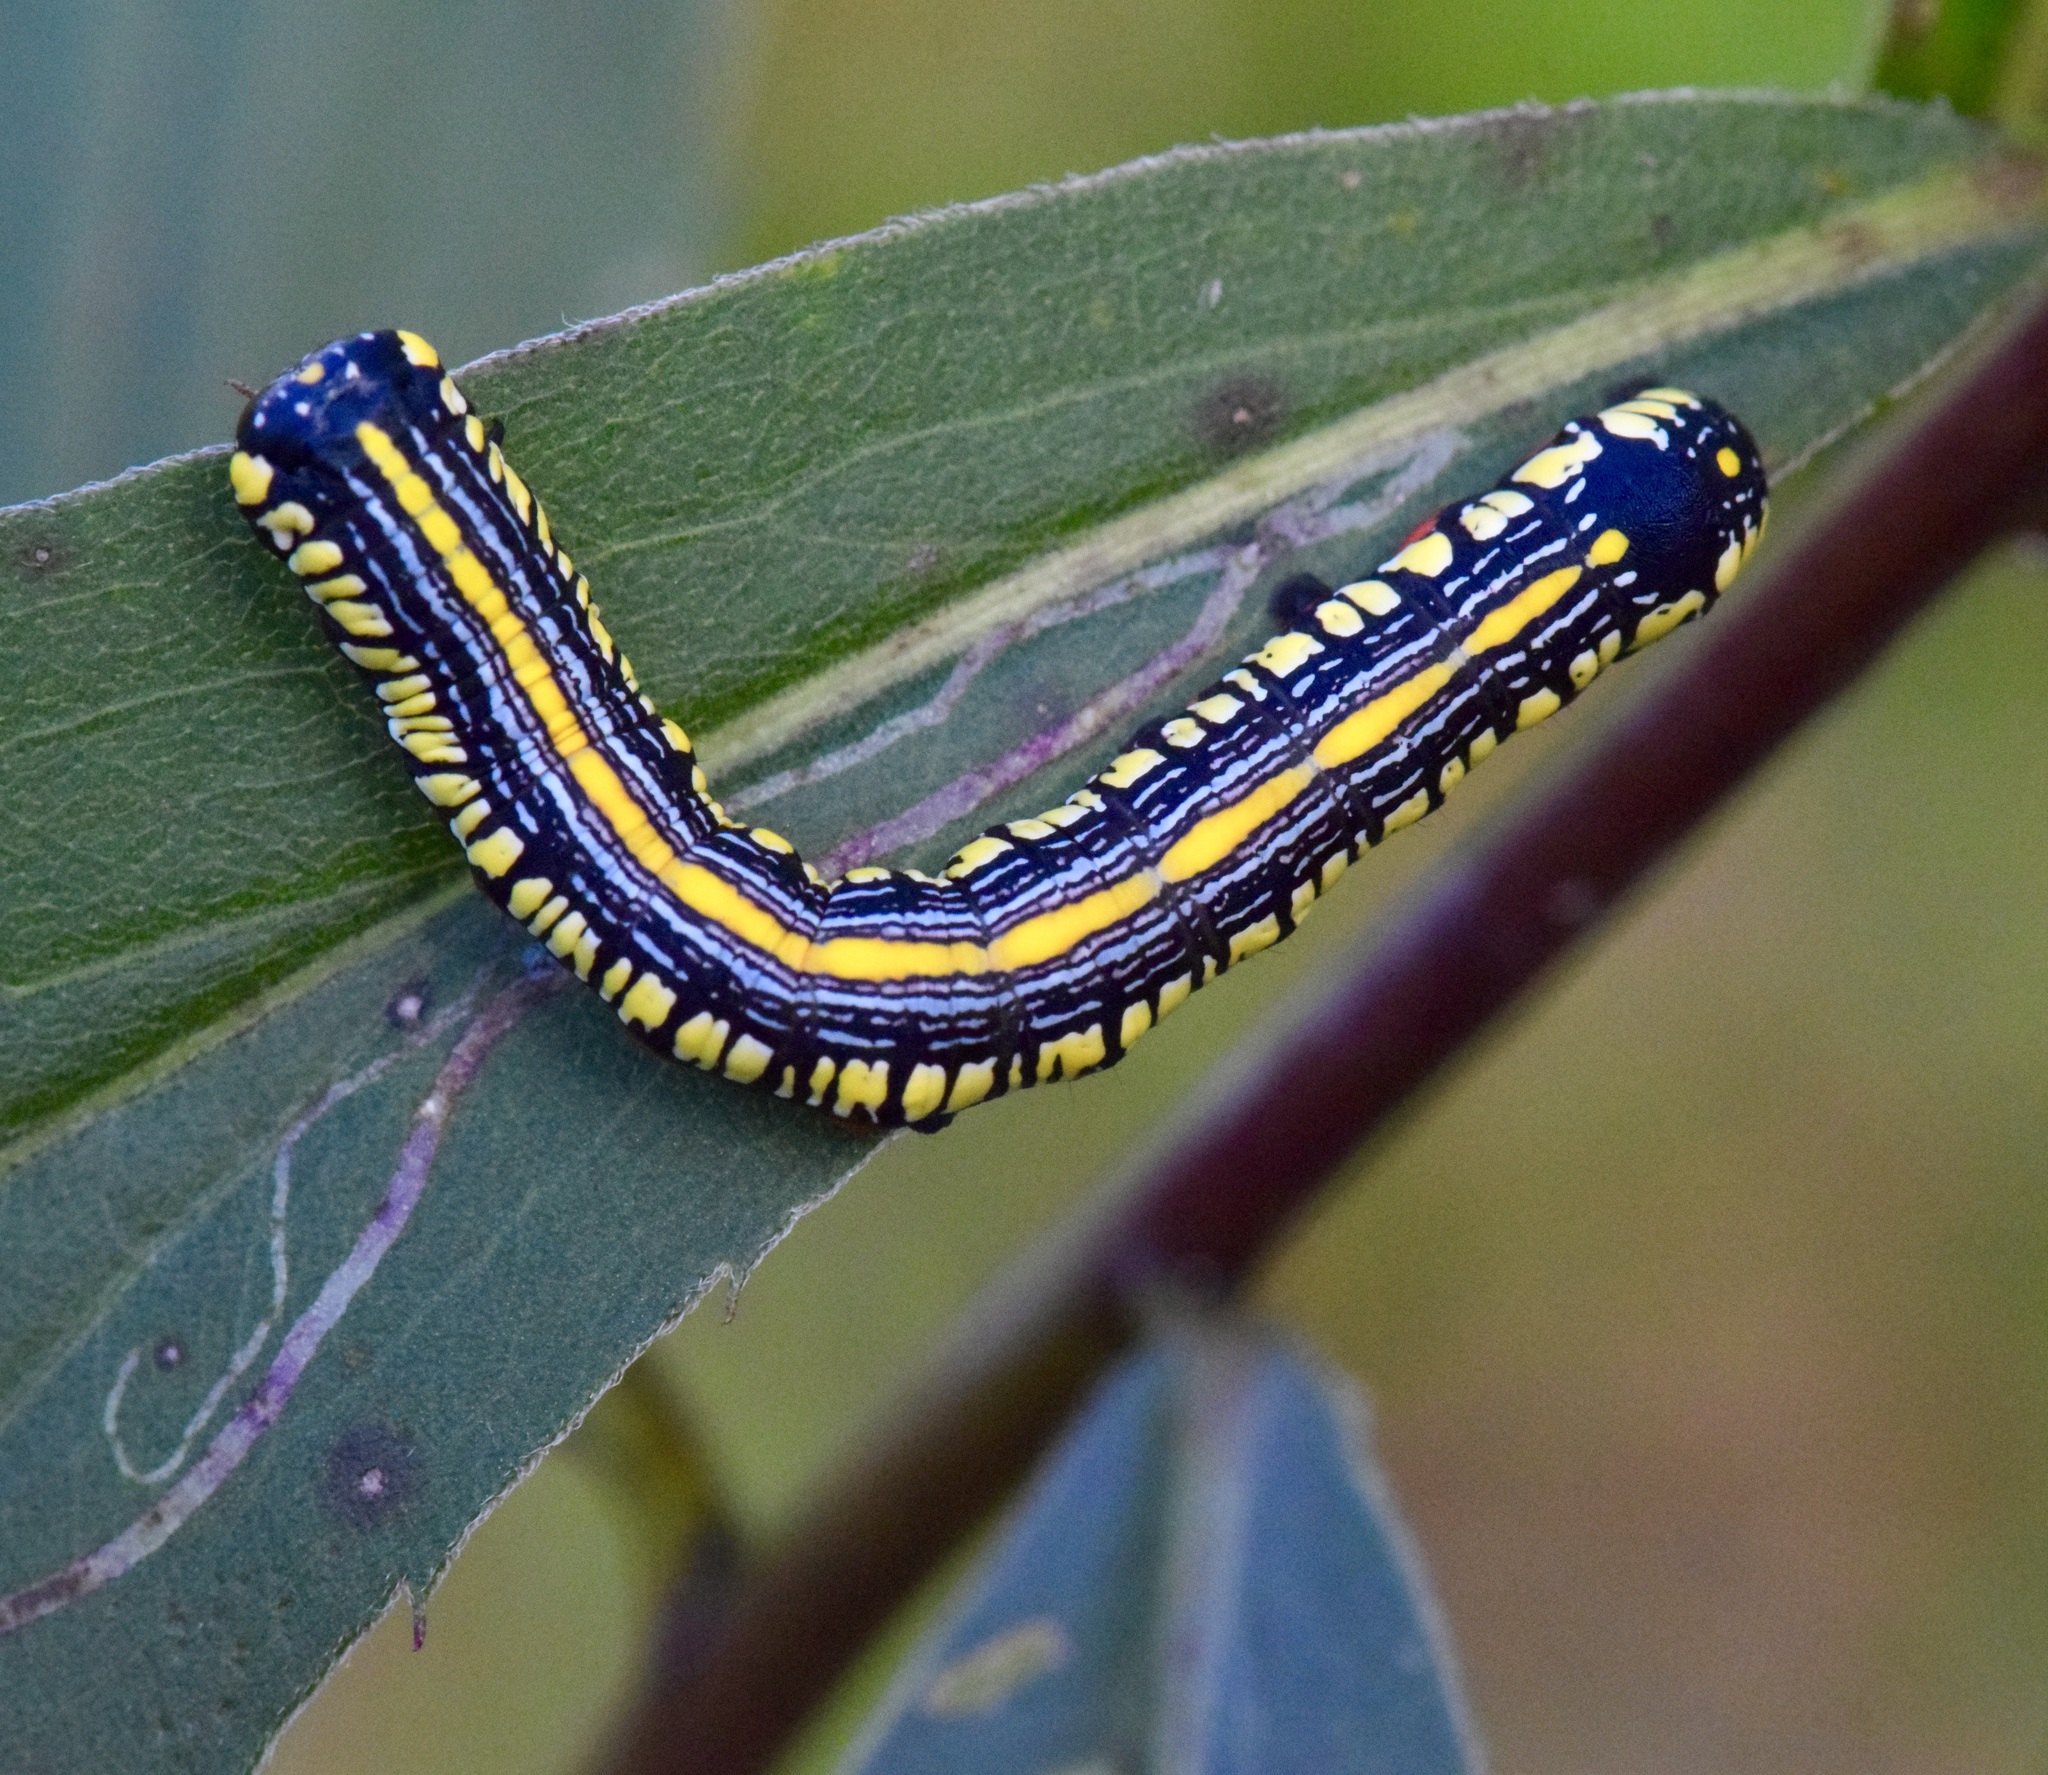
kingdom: Animalia
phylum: Arthropoda
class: Insecta
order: Lepidoptera
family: Noctuidae
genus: Cucullia
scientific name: Cucullia convexipennis
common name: Brown-hooded owlet
